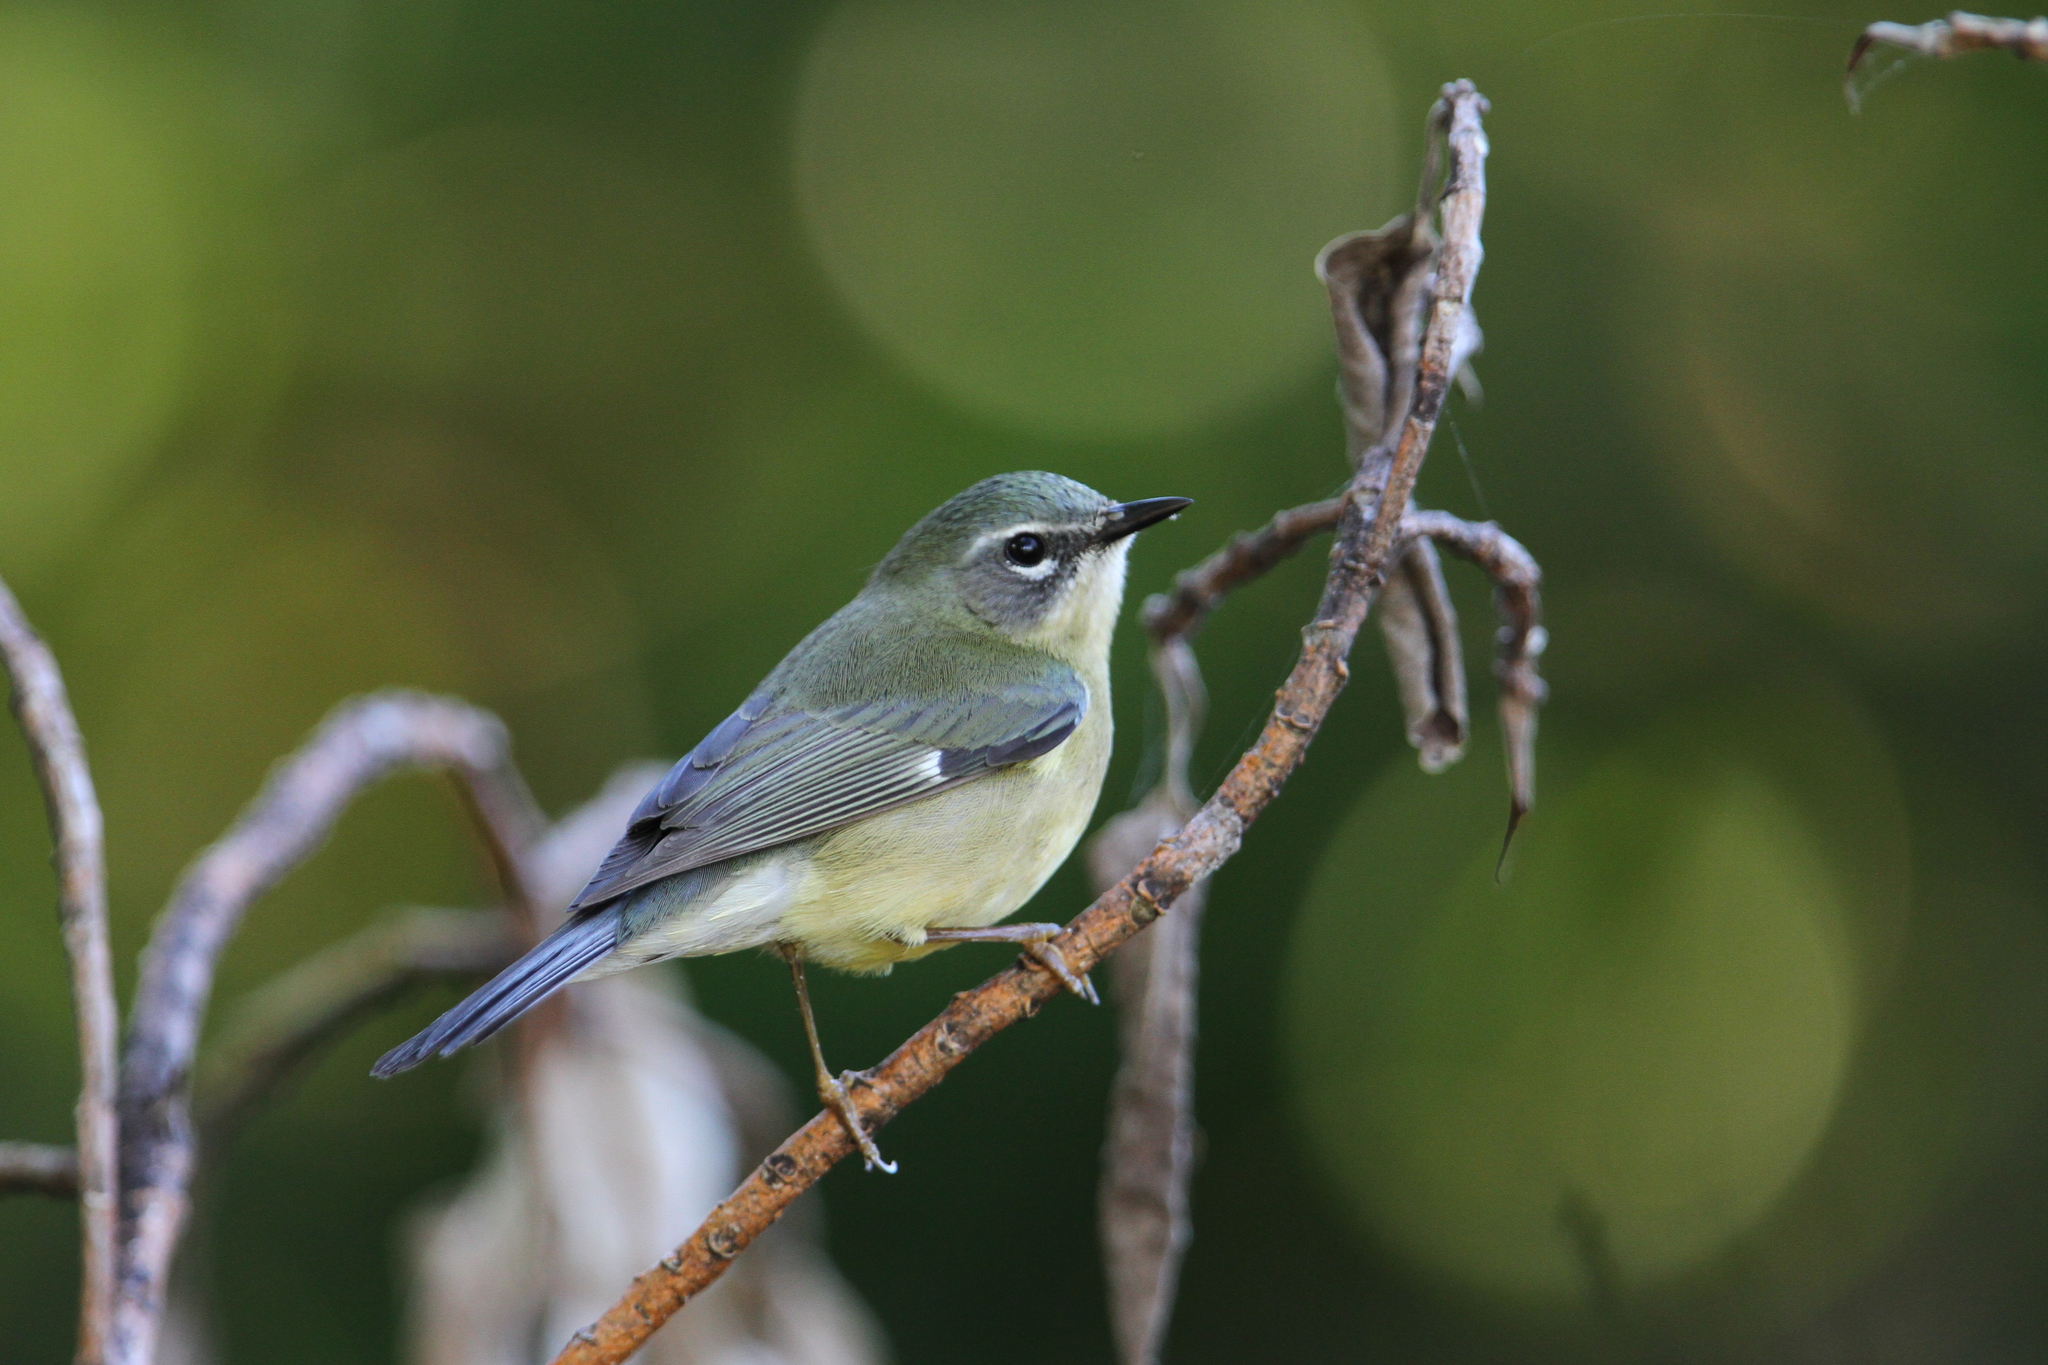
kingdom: Animalia
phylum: Chordata
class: Aves
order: Passeriformes
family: Parulidae
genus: Setophaga
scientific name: Setophaga caerulescens
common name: Black-throated blue warbler
